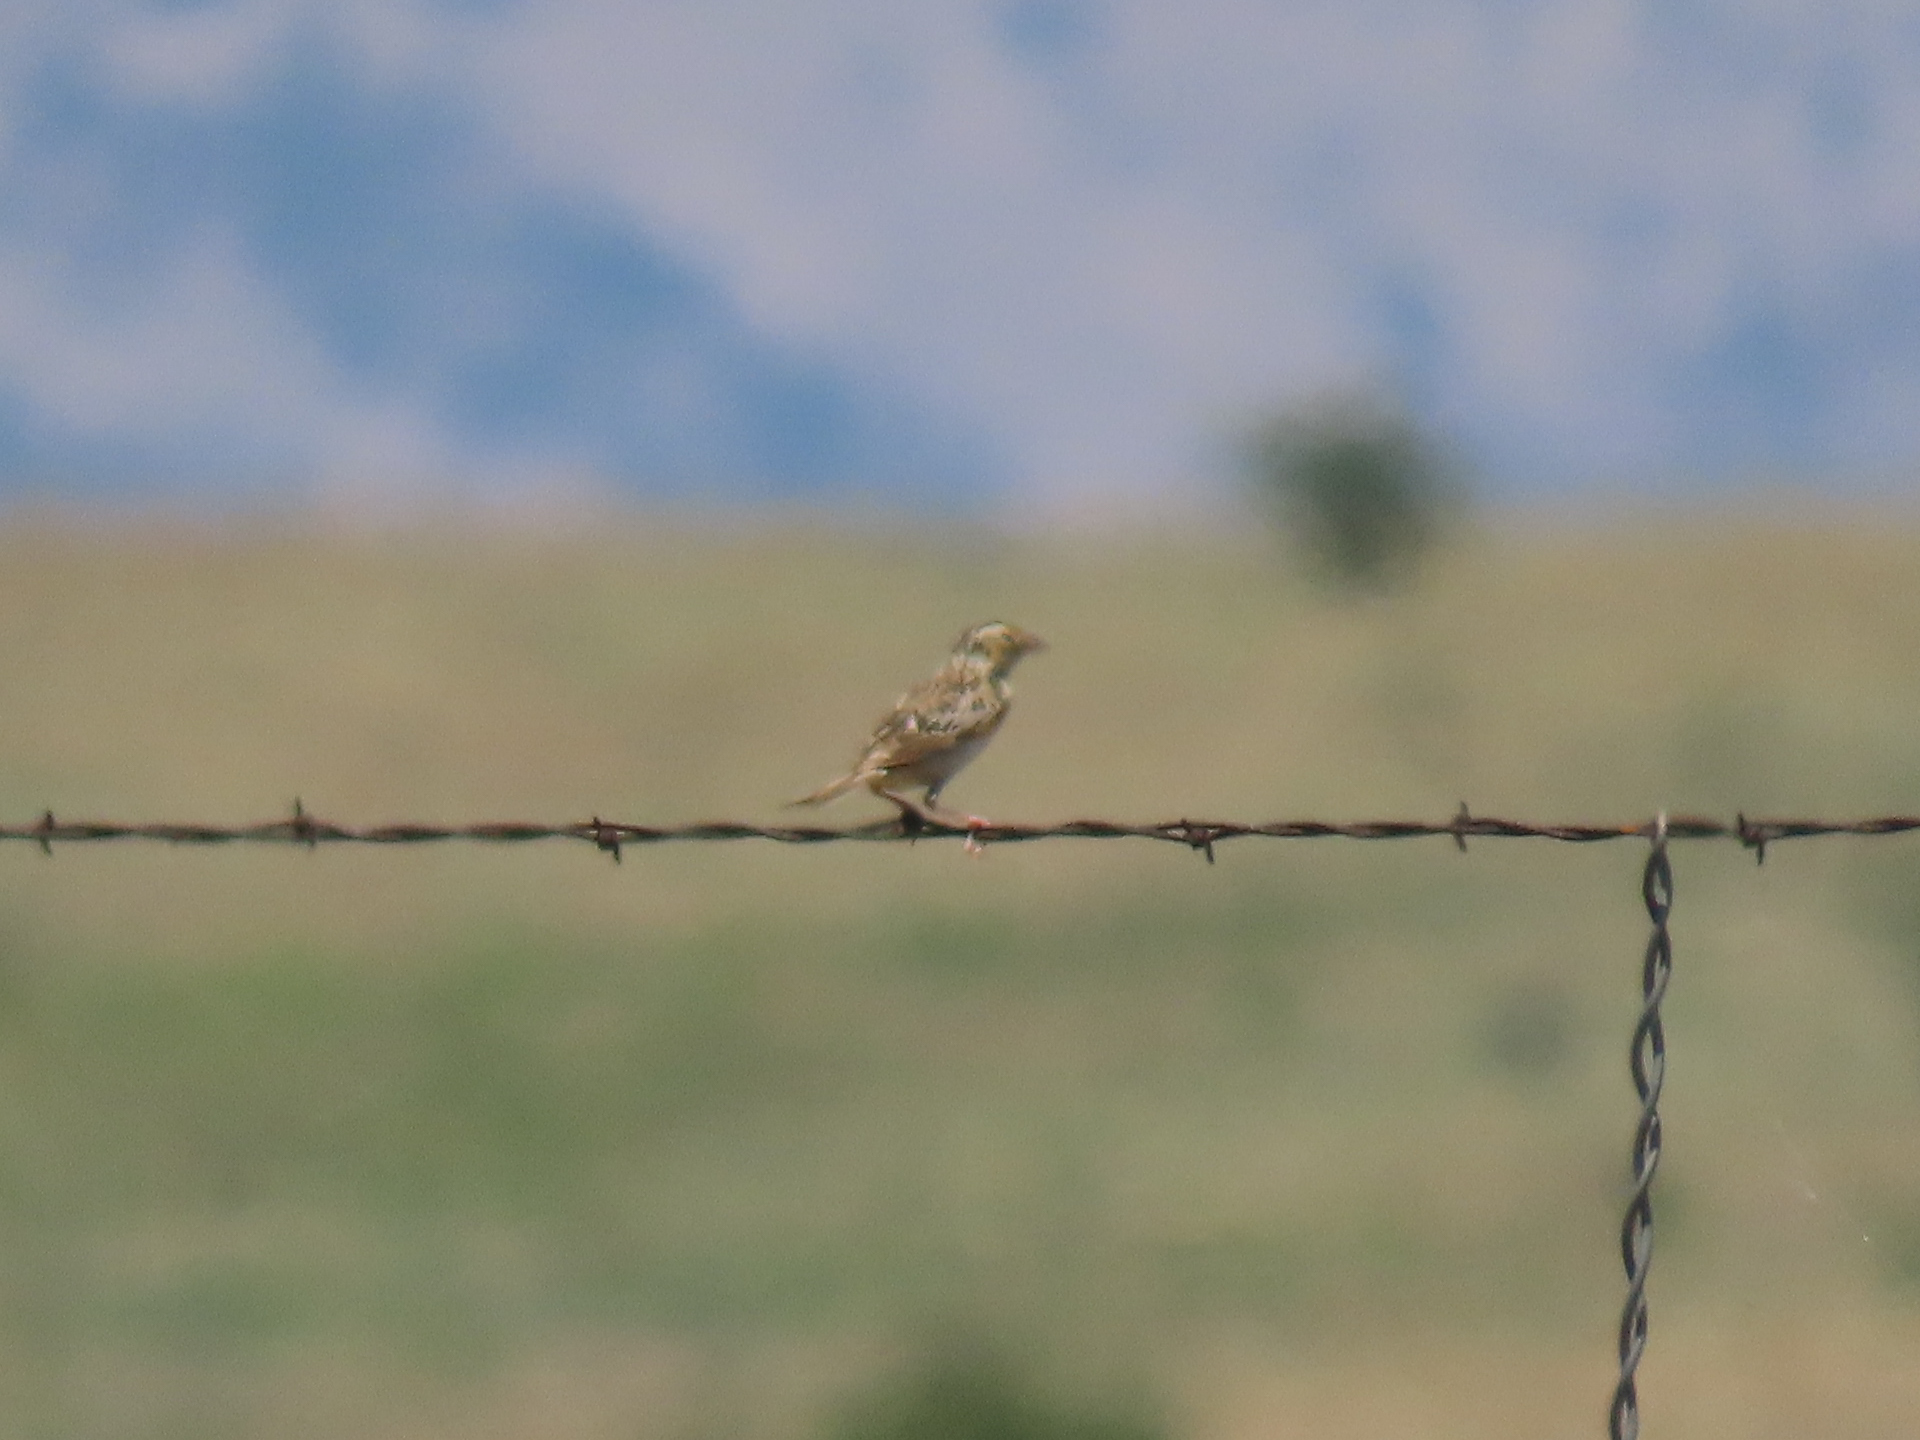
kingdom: Animalia
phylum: Chordata
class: Aves
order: Passeriformes
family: Passerellidae
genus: Ammodramus
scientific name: Ammodramus savannarum
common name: Grasshopper sparrow
